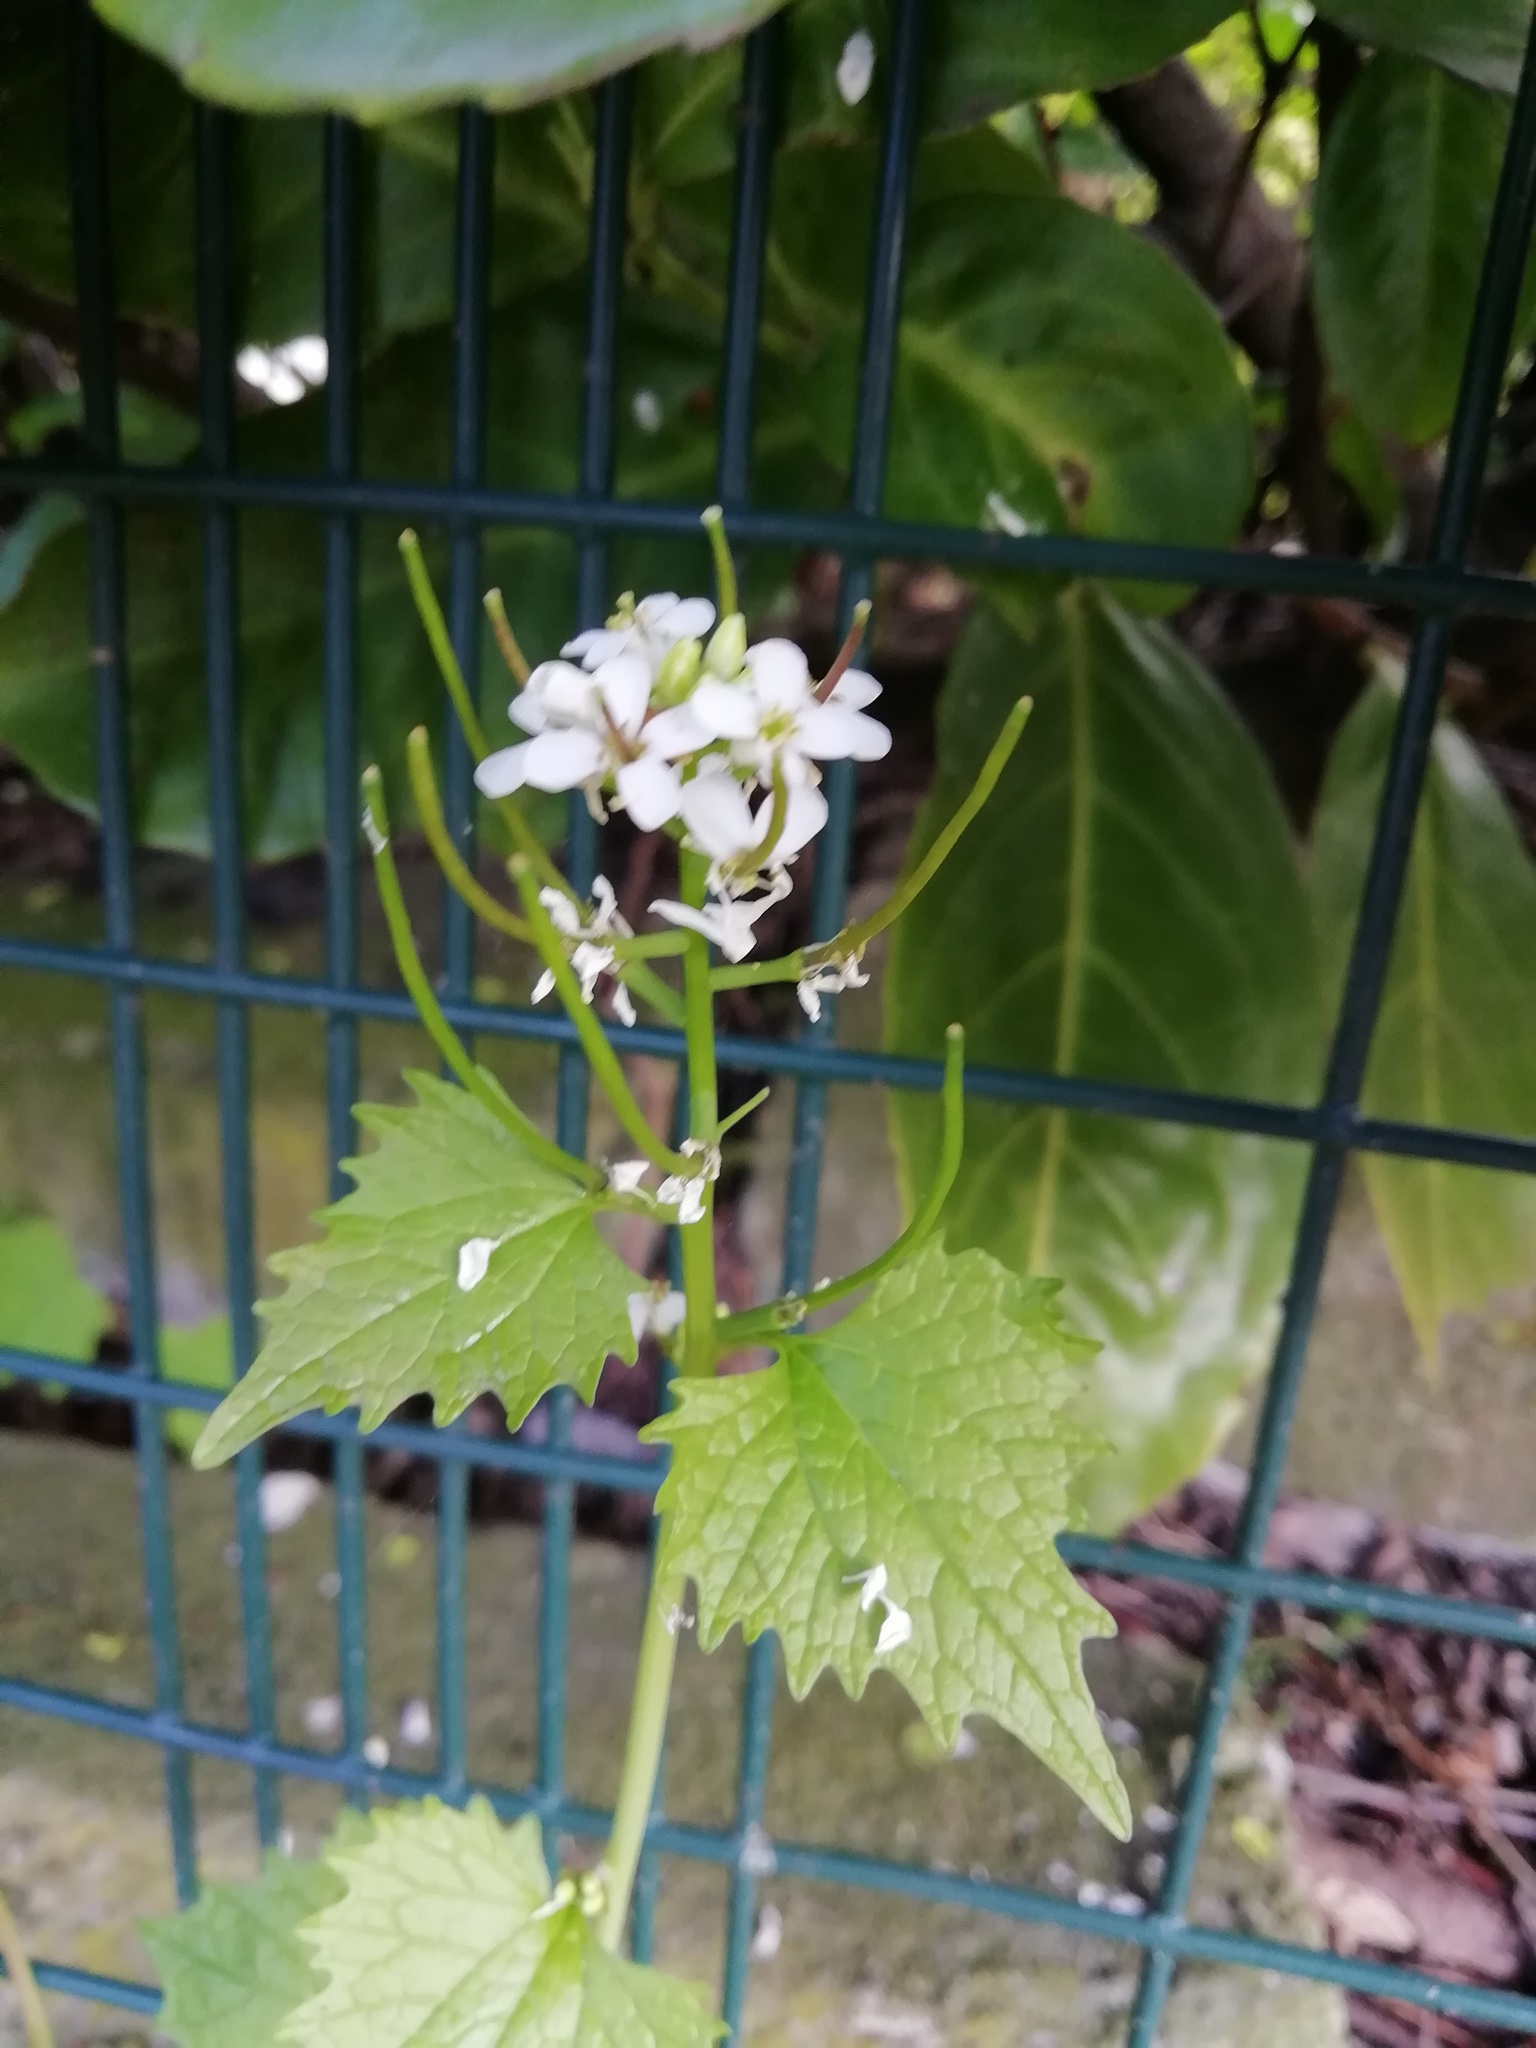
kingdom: Plantae
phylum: Tracheophyta
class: Magnoliopsida
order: Brassicales
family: Brassicaceae
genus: Alliaria
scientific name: Alliaria petiolata
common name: Garlic mustard
